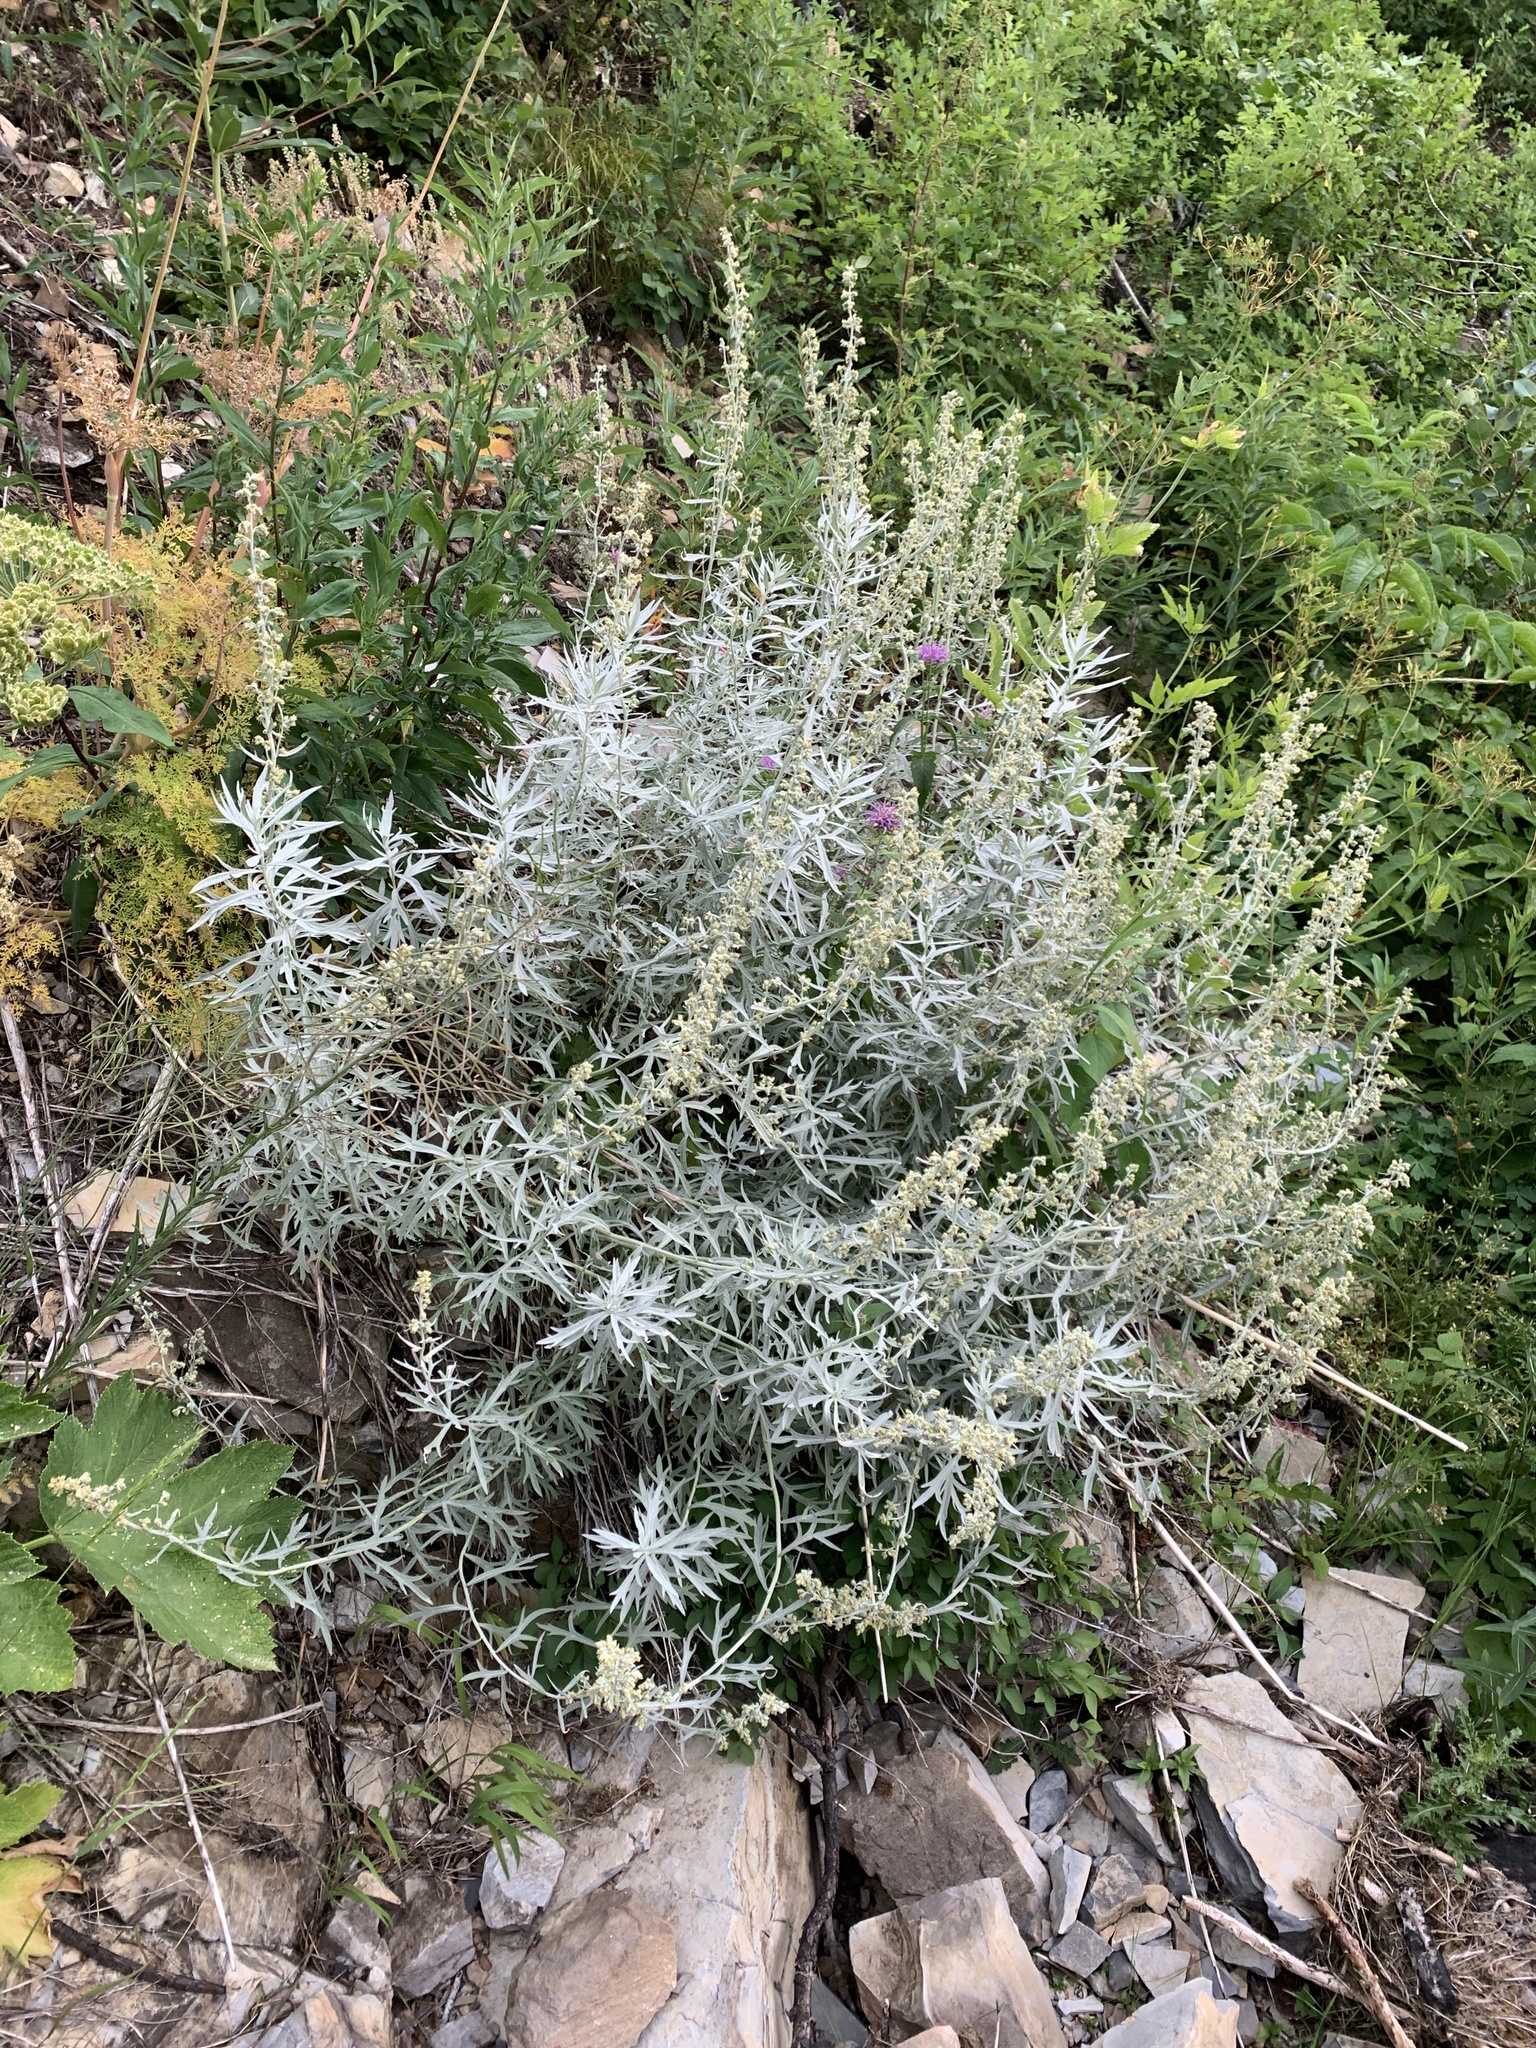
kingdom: Plantae
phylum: Tracheophyta
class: Magnoliopsida
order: Asterales
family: Asteraceae
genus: Artemisia
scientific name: Artemisia ludoviciana
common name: Western mugwort
